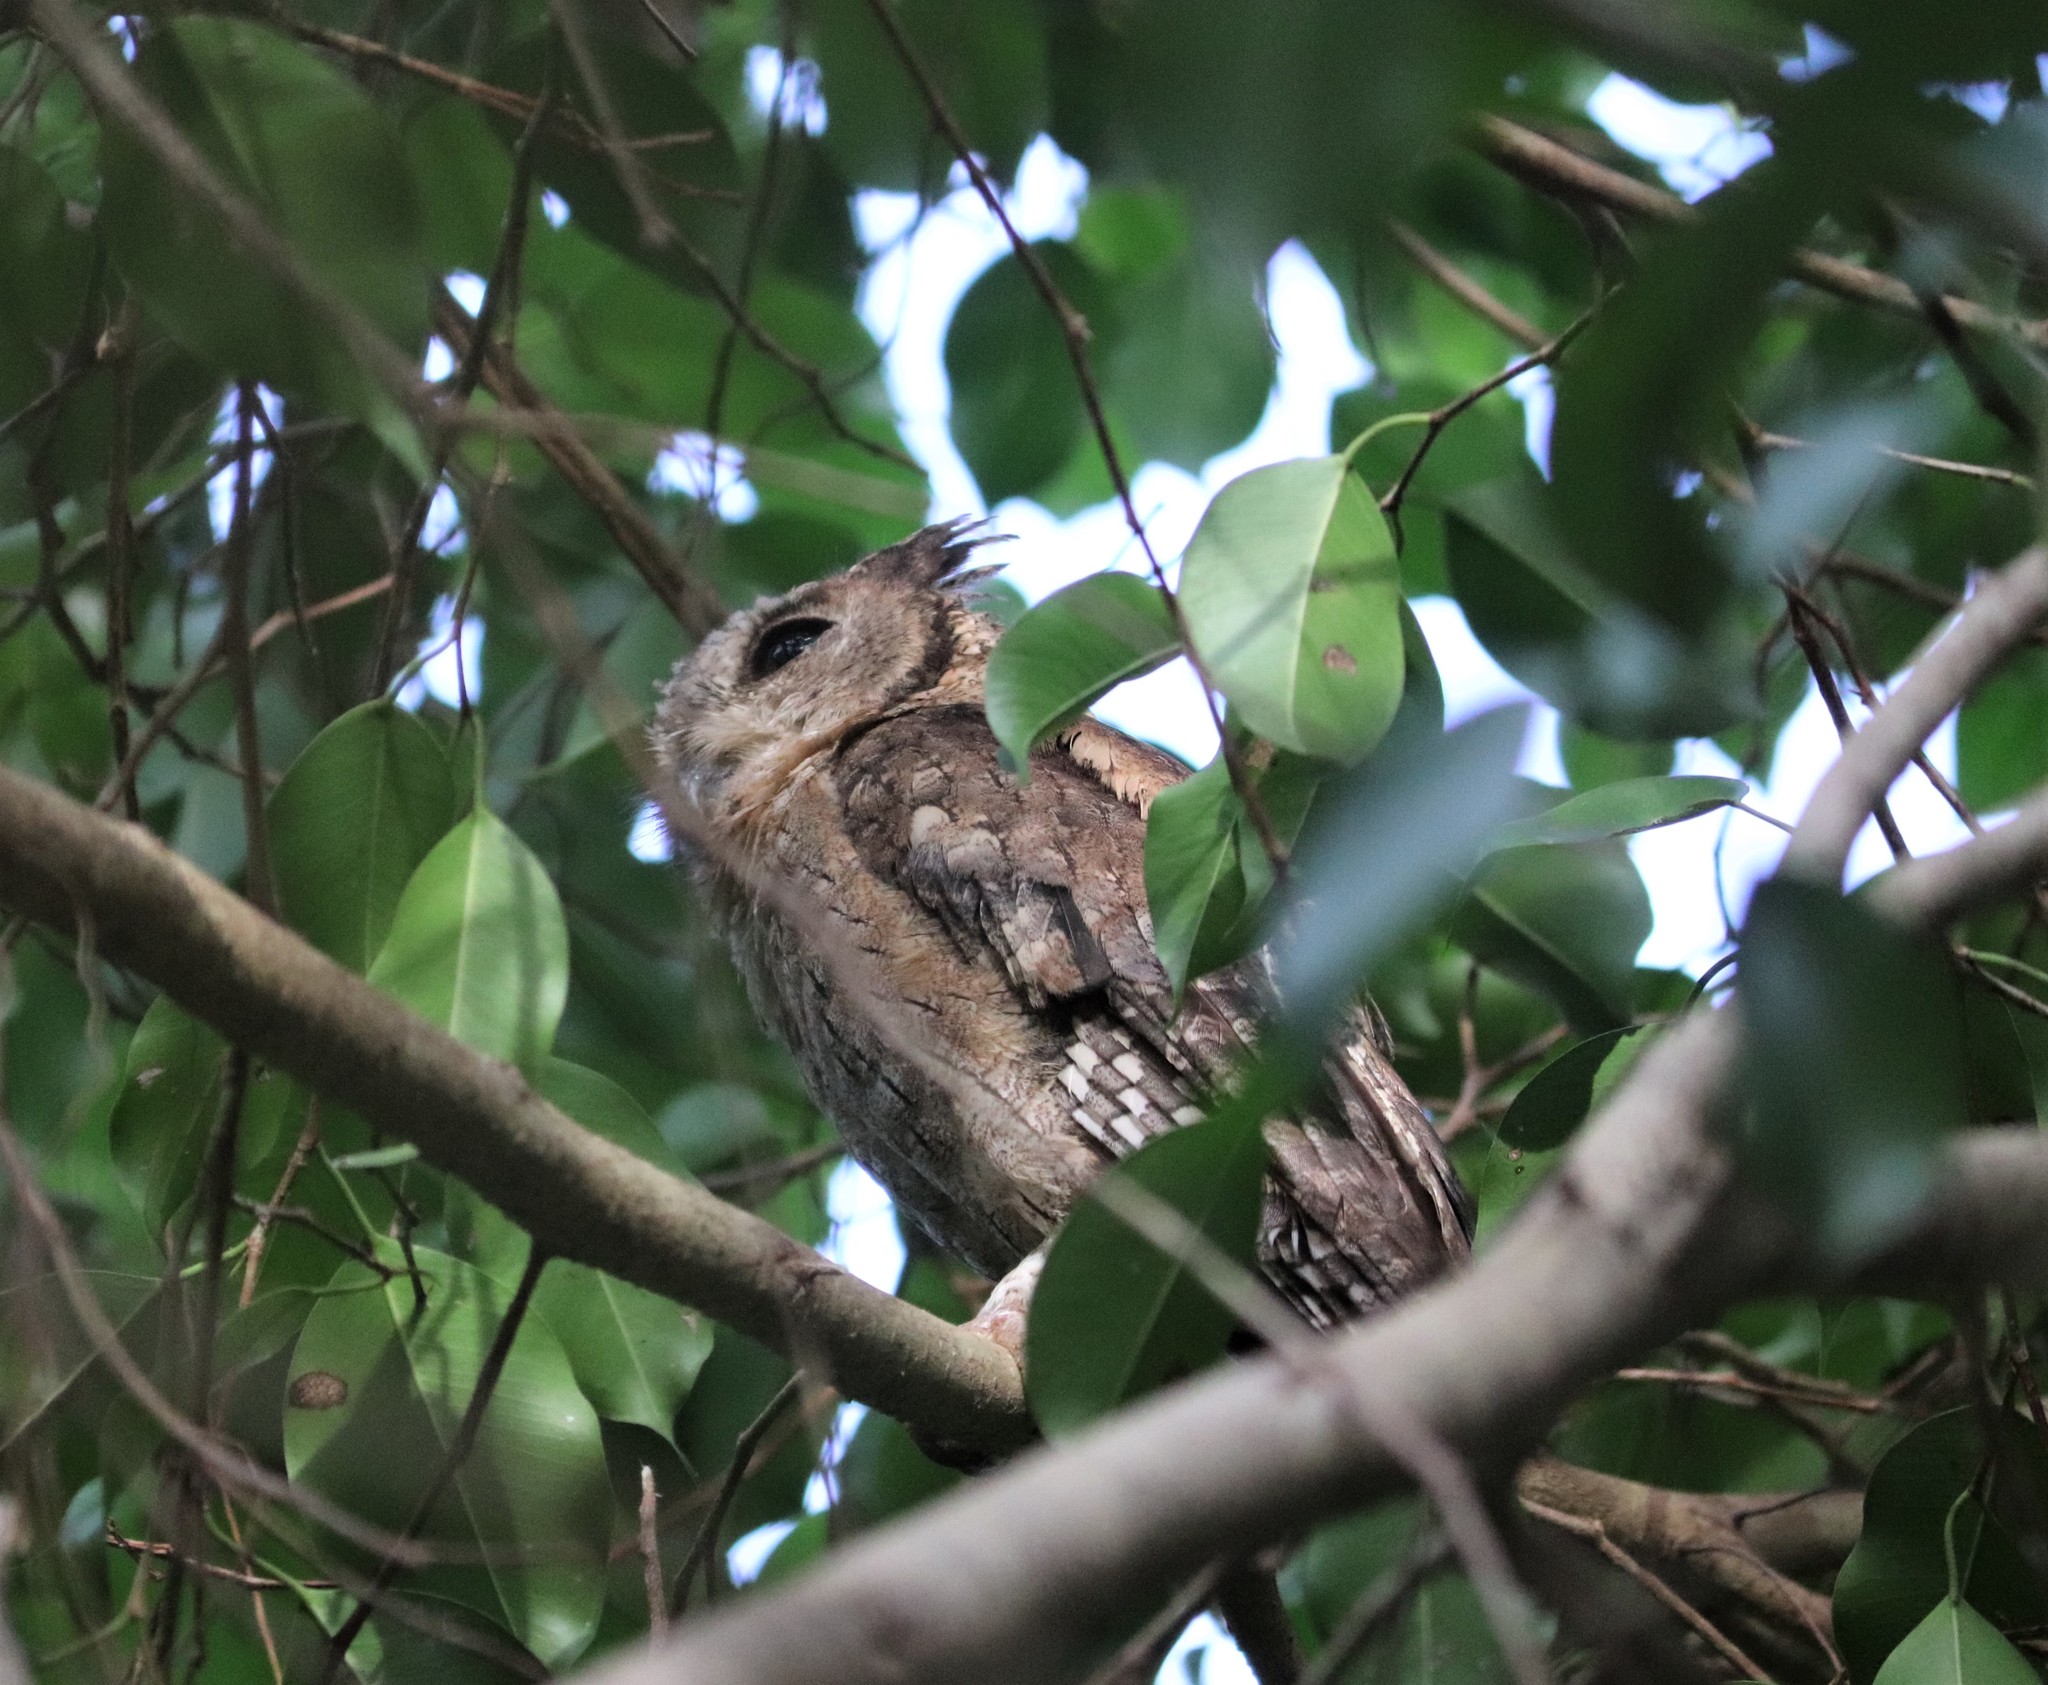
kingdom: Animalia
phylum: Chordata
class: Aves
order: Strigiformes
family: Strigidae
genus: Otus
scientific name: Otus bakkamoena
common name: Indian scops owl
